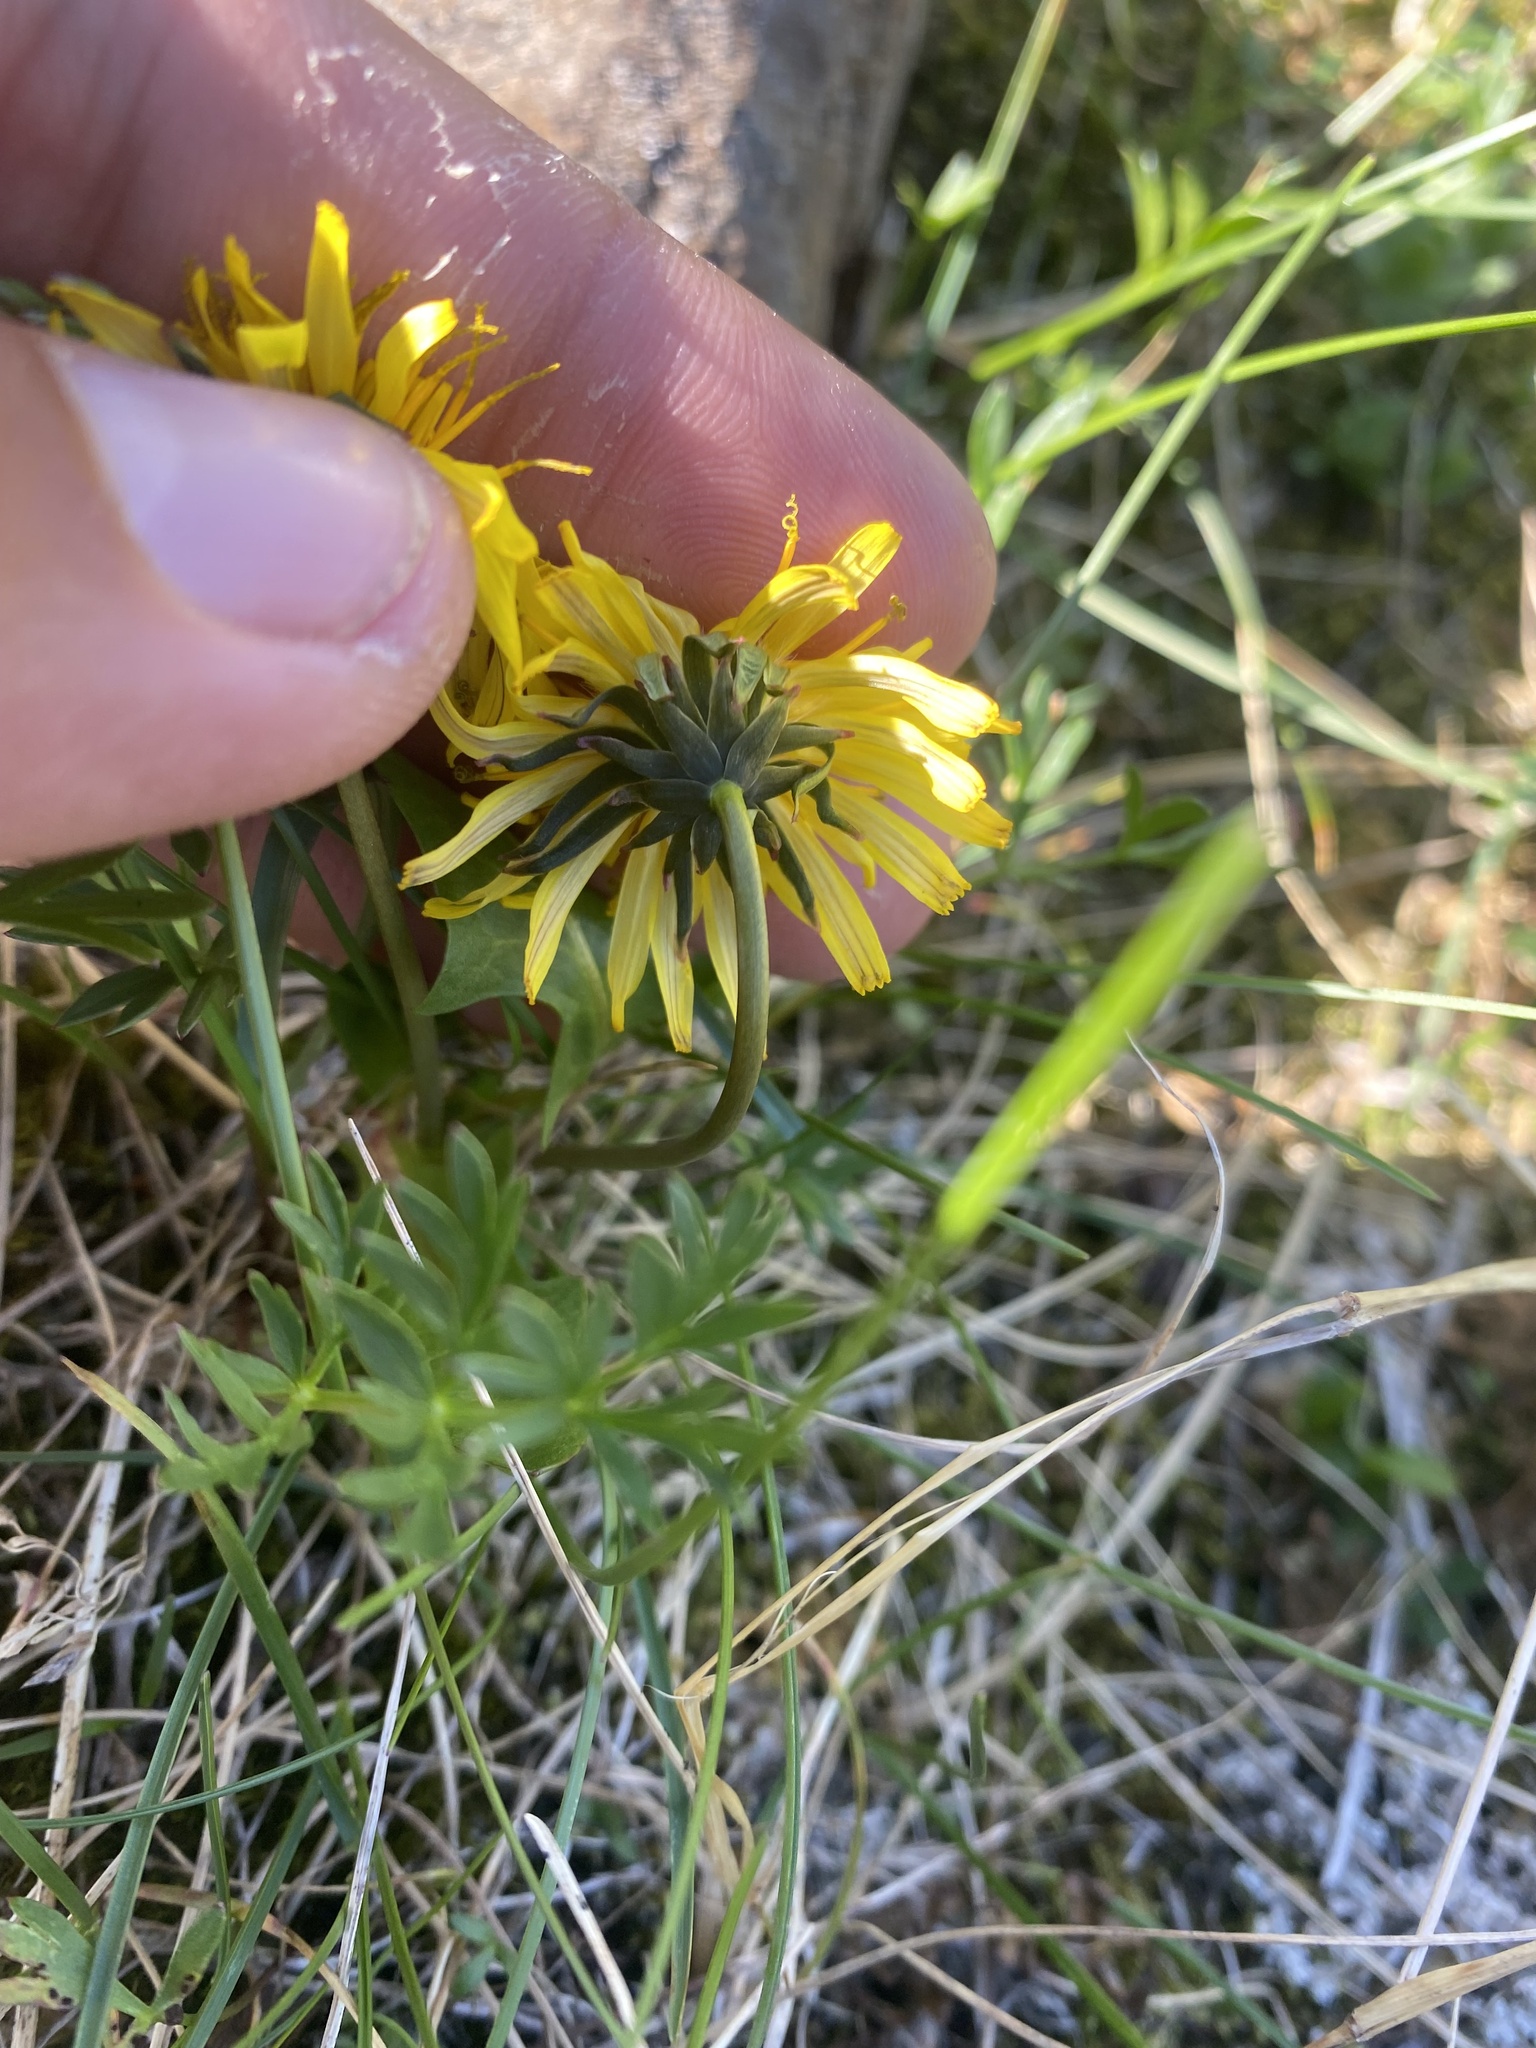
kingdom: Plantae
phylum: Tracheophyta
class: Magnoliopsida
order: Asterales
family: Asteraceae
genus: Taraxacum
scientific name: Taraxacum glabrum
